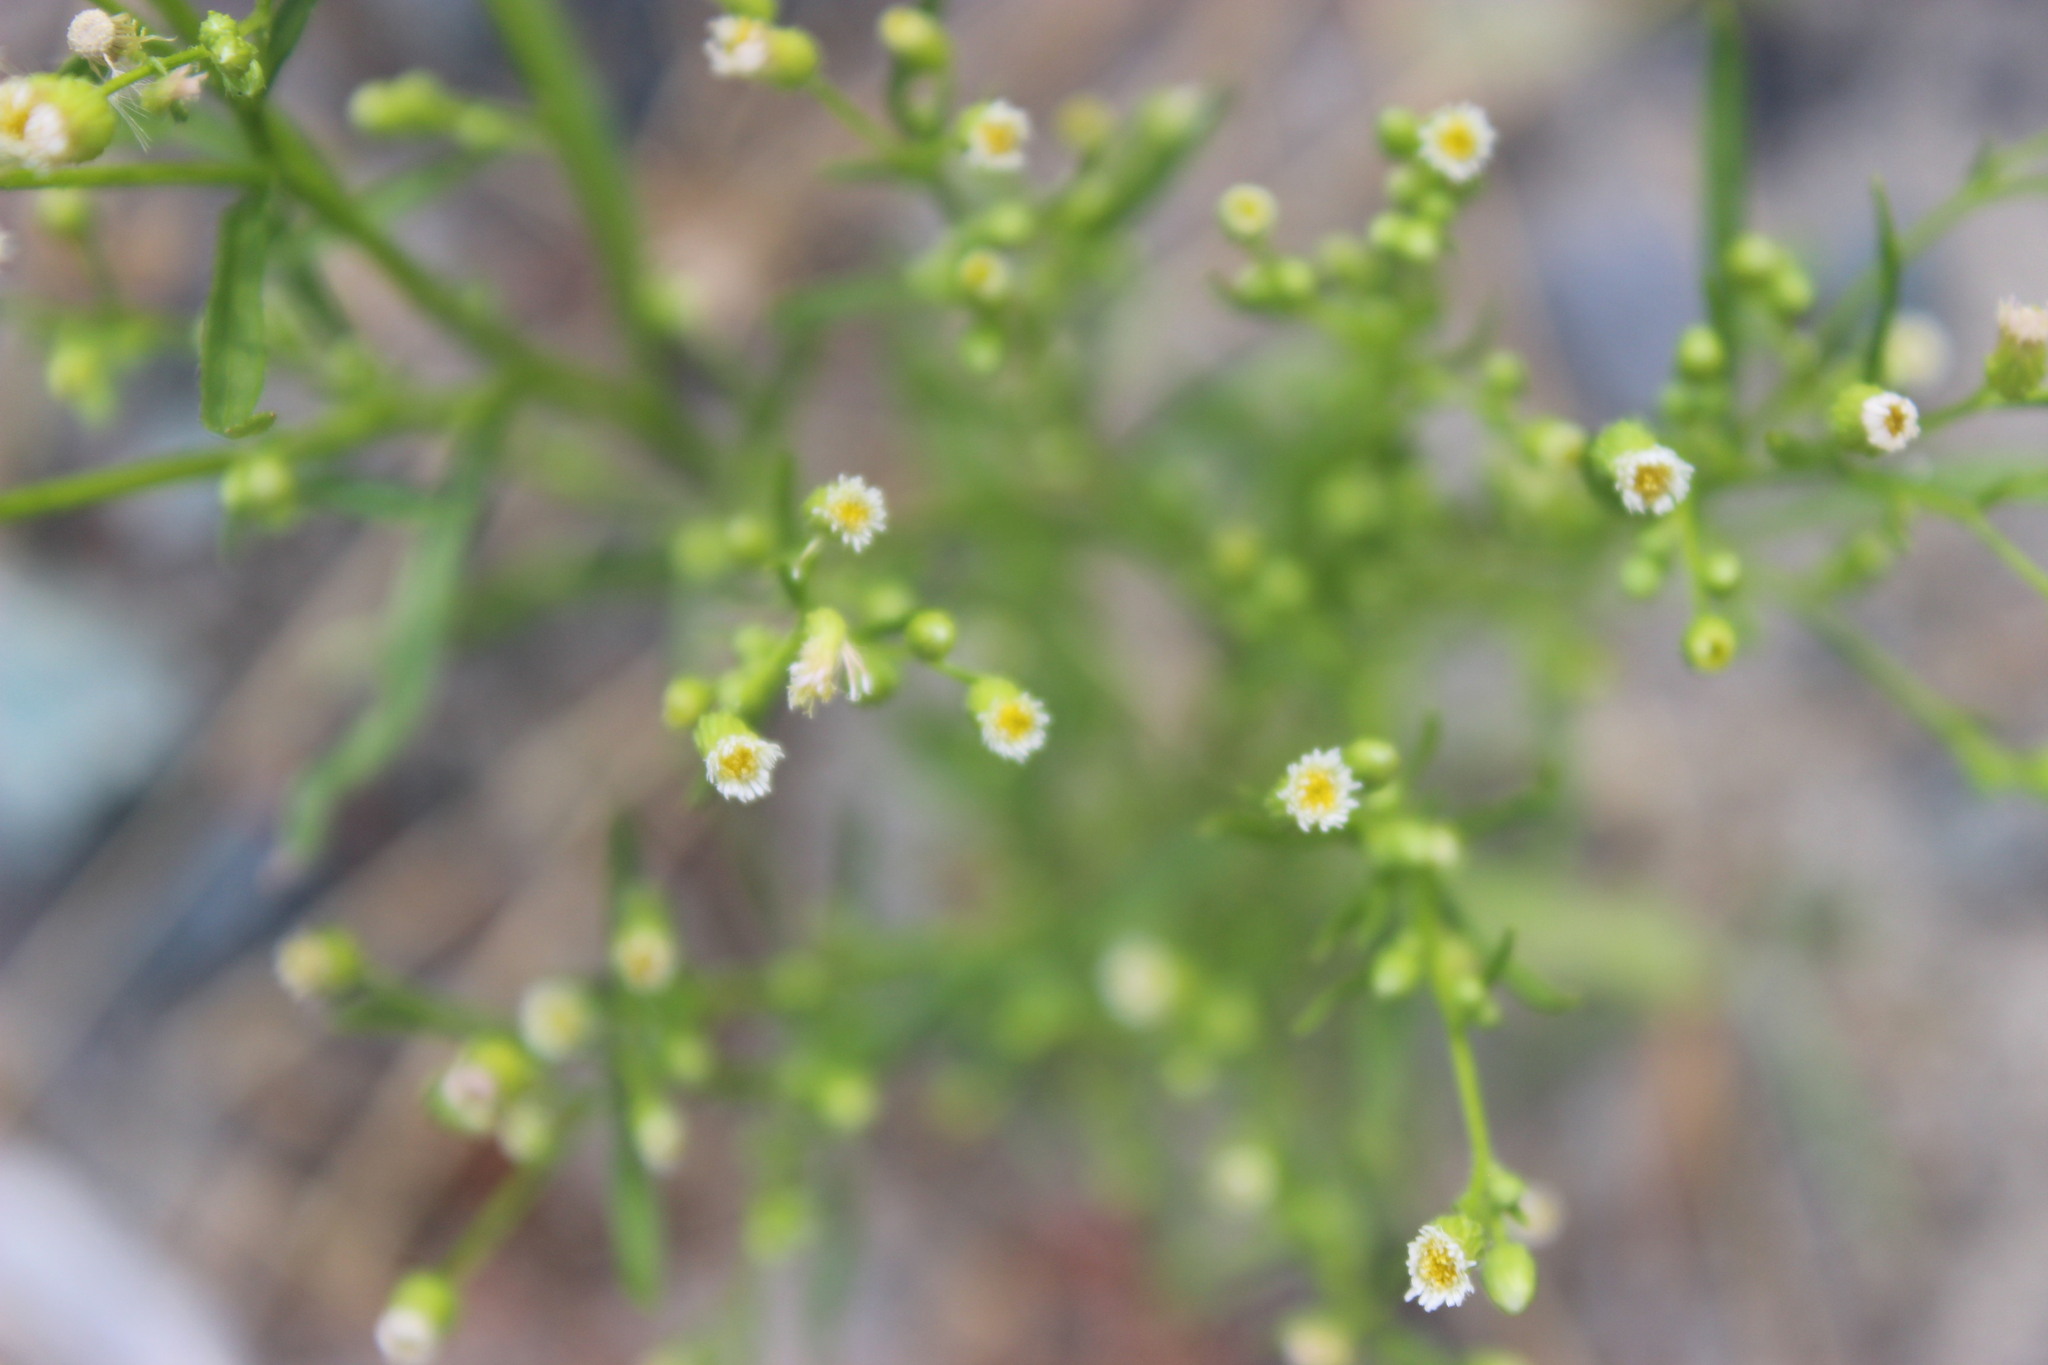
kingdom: Plantae
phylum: Tracheophyta
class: Magnoliopsida
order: Asterales
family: Asteraceae
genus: Erigeron
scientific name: Erigeron canadensis
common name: Canadian fleabane
